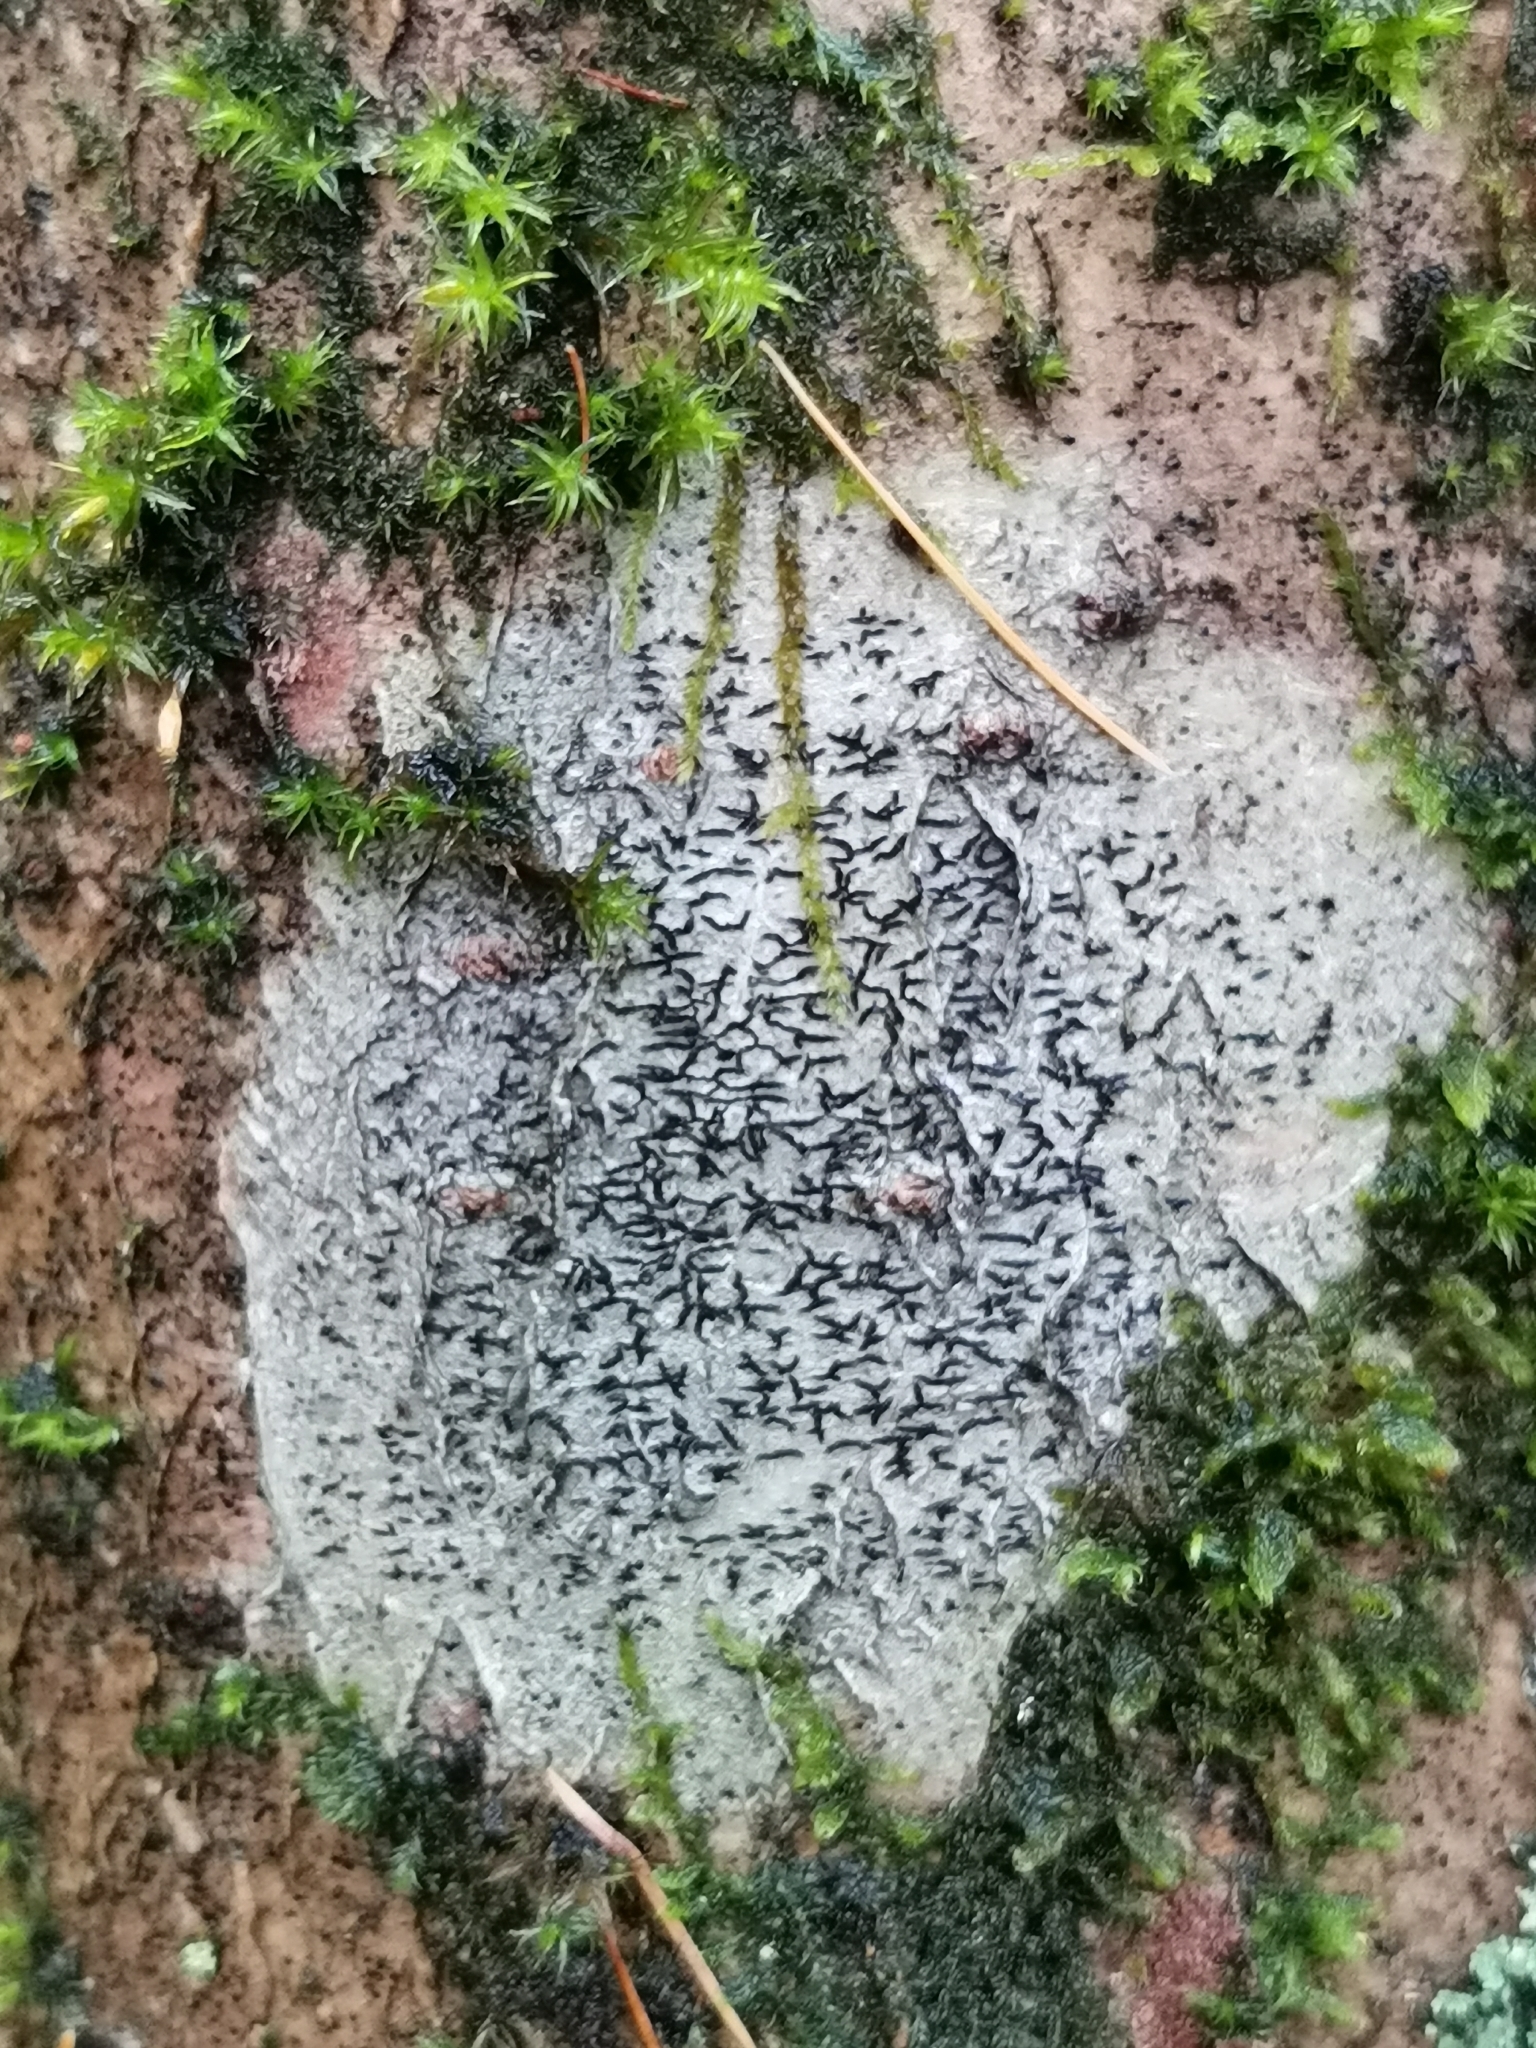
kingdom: Fungi
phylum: Ascomycota
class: Lecanoromycetes
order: Ostropales
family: Graphidaceae
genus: Graphis
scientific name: Graphis scripta
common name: Script lichen
